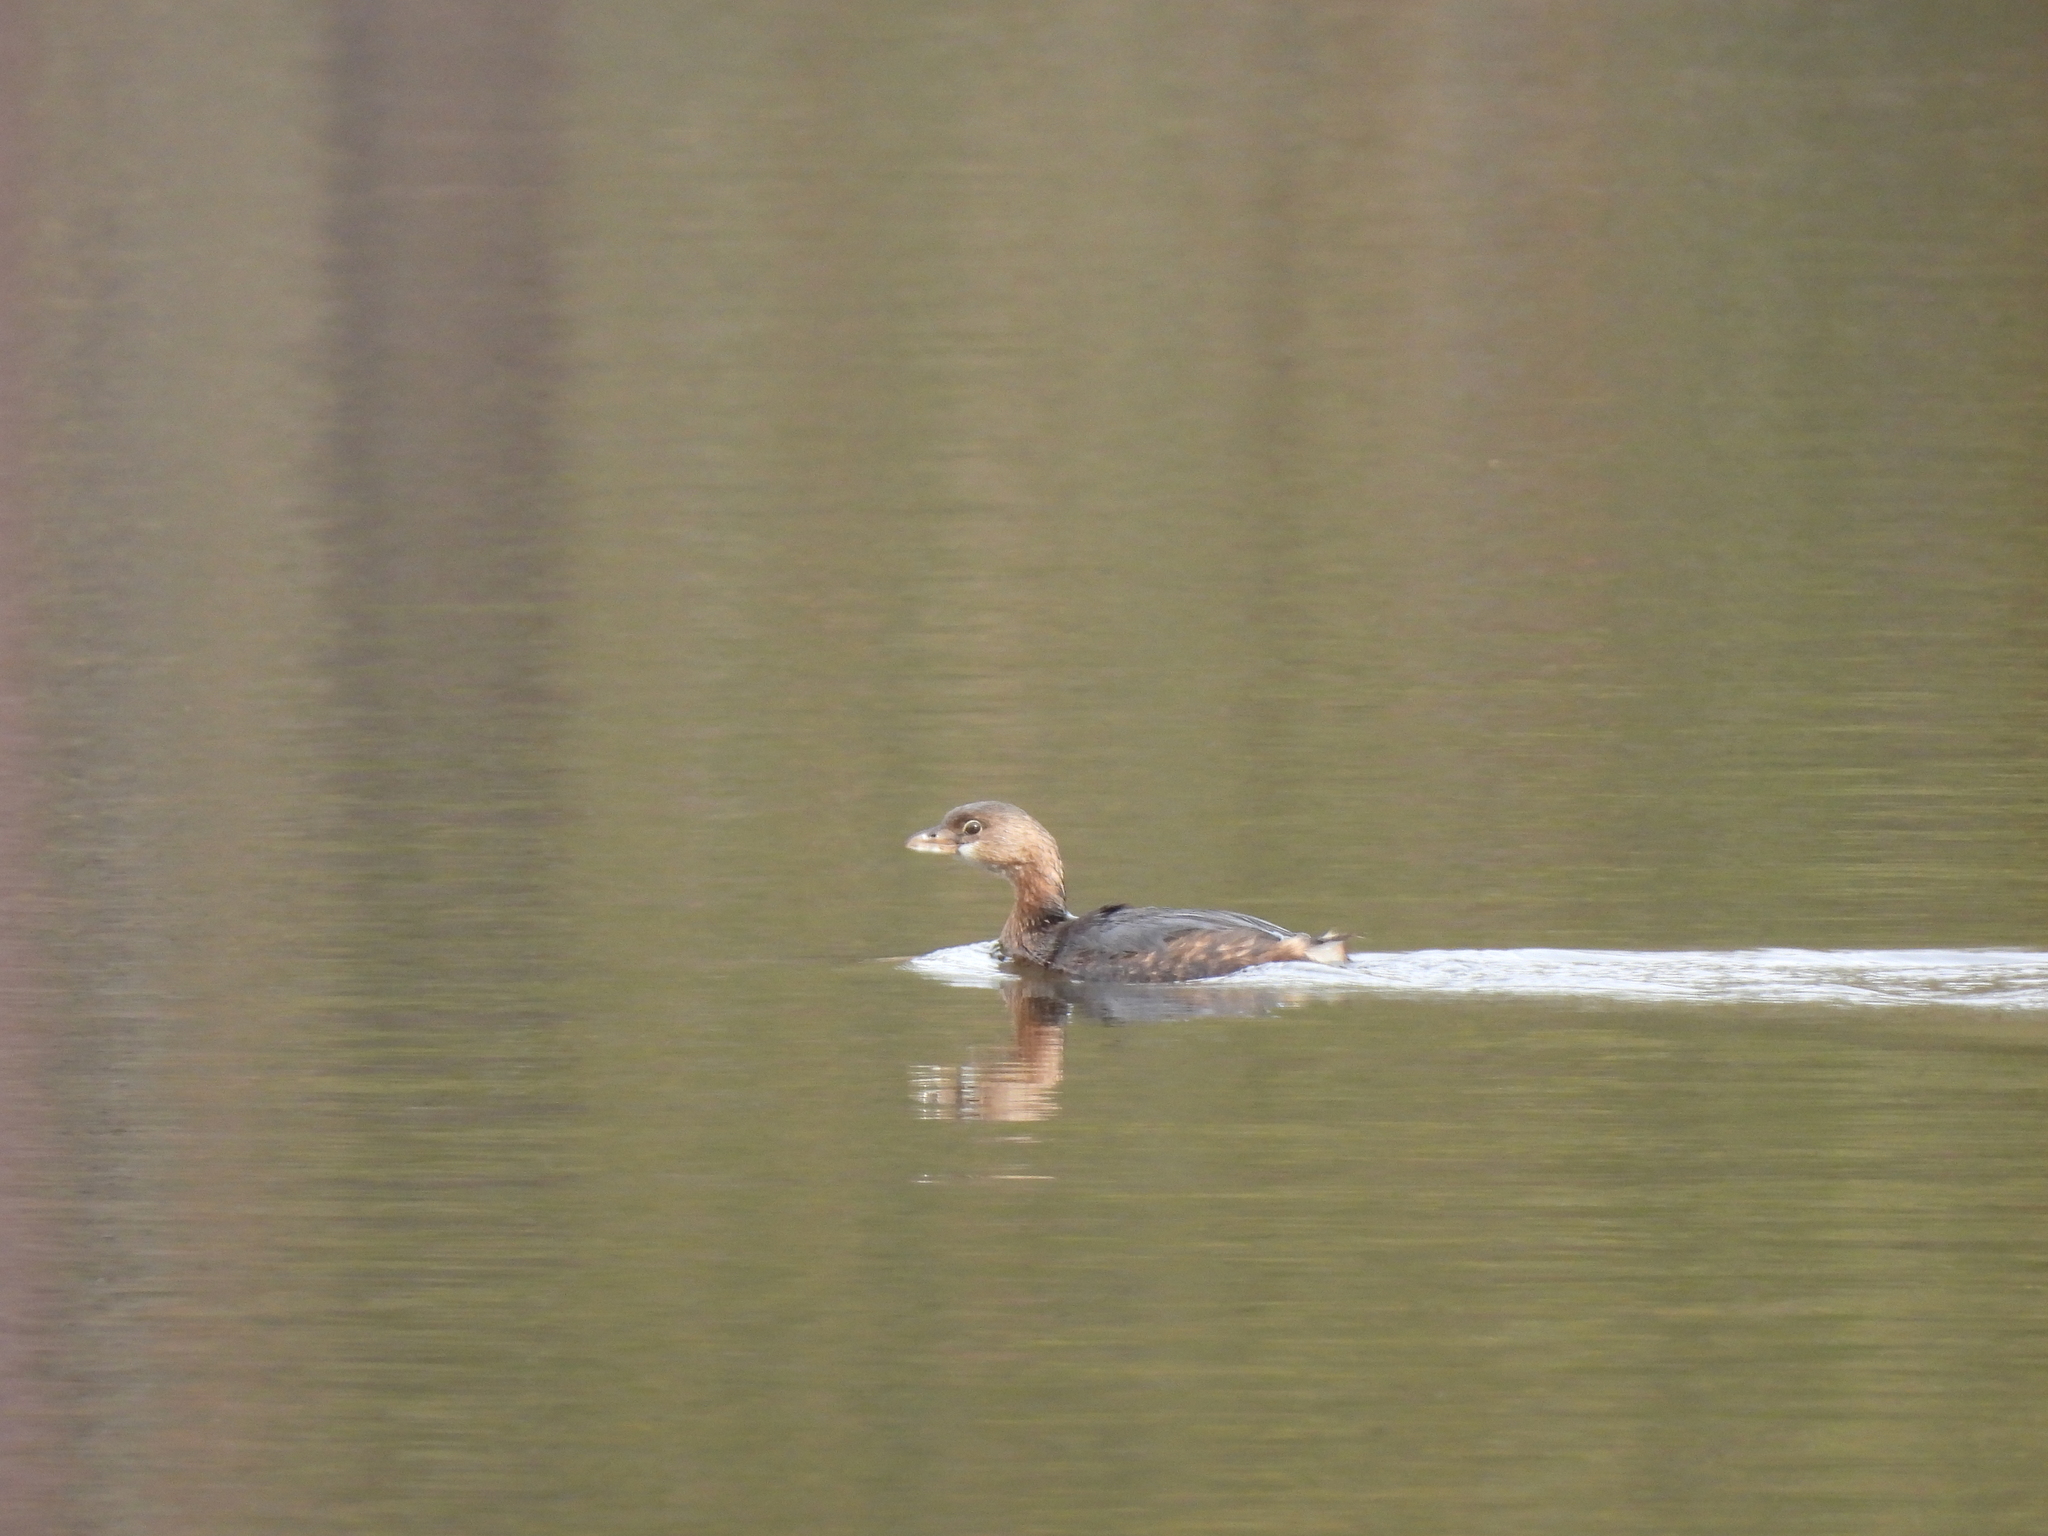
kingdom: Animalia
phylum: Chordata
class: Aves
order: Podicipediformes
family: Podicipedidae
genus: Podilymbus
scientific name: Podilymbus podiceps
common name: Pied-billed grebe
